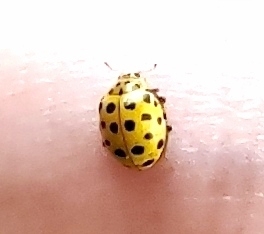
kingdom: Animalia
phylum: Arthropoda
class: Insecta
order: Coleoptera
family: Coccinellidae
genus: Psyllobora
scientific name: Psyllobora vigintiduopunctata
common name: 22-spot ladybird
